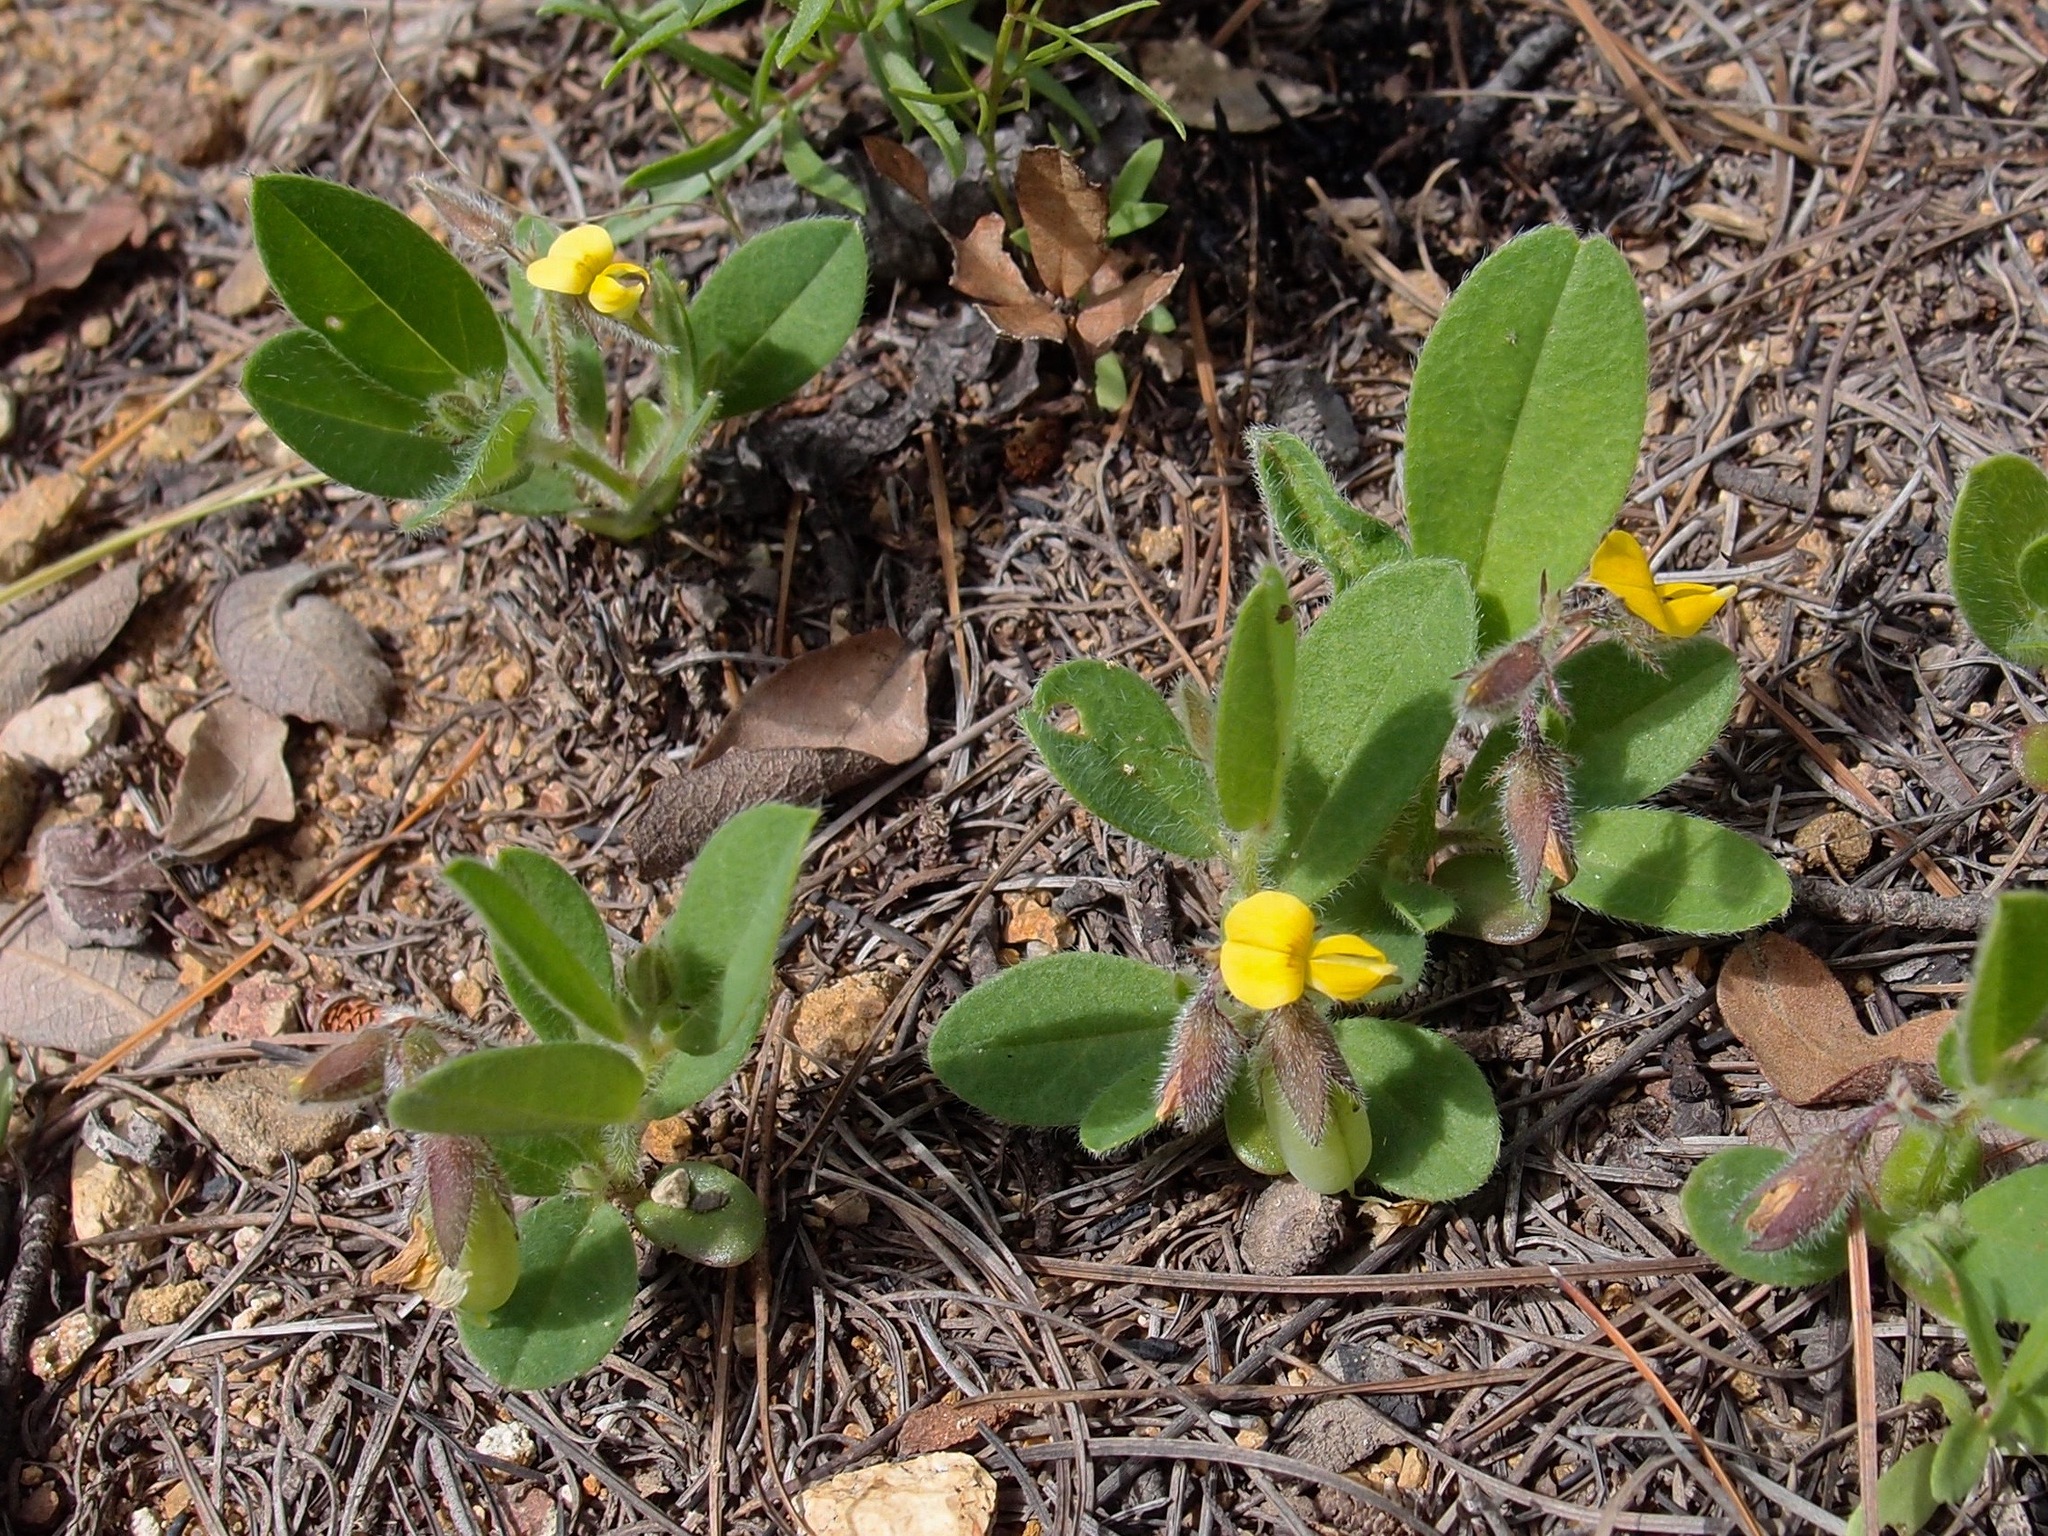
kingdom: Plantae
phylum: Tracheophyta
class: Magnoliopsida
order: Fabales
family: Fabaceae
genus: Crotalaria
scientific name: Crotalaria sagittalis
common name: Arrowhead rattlebox
